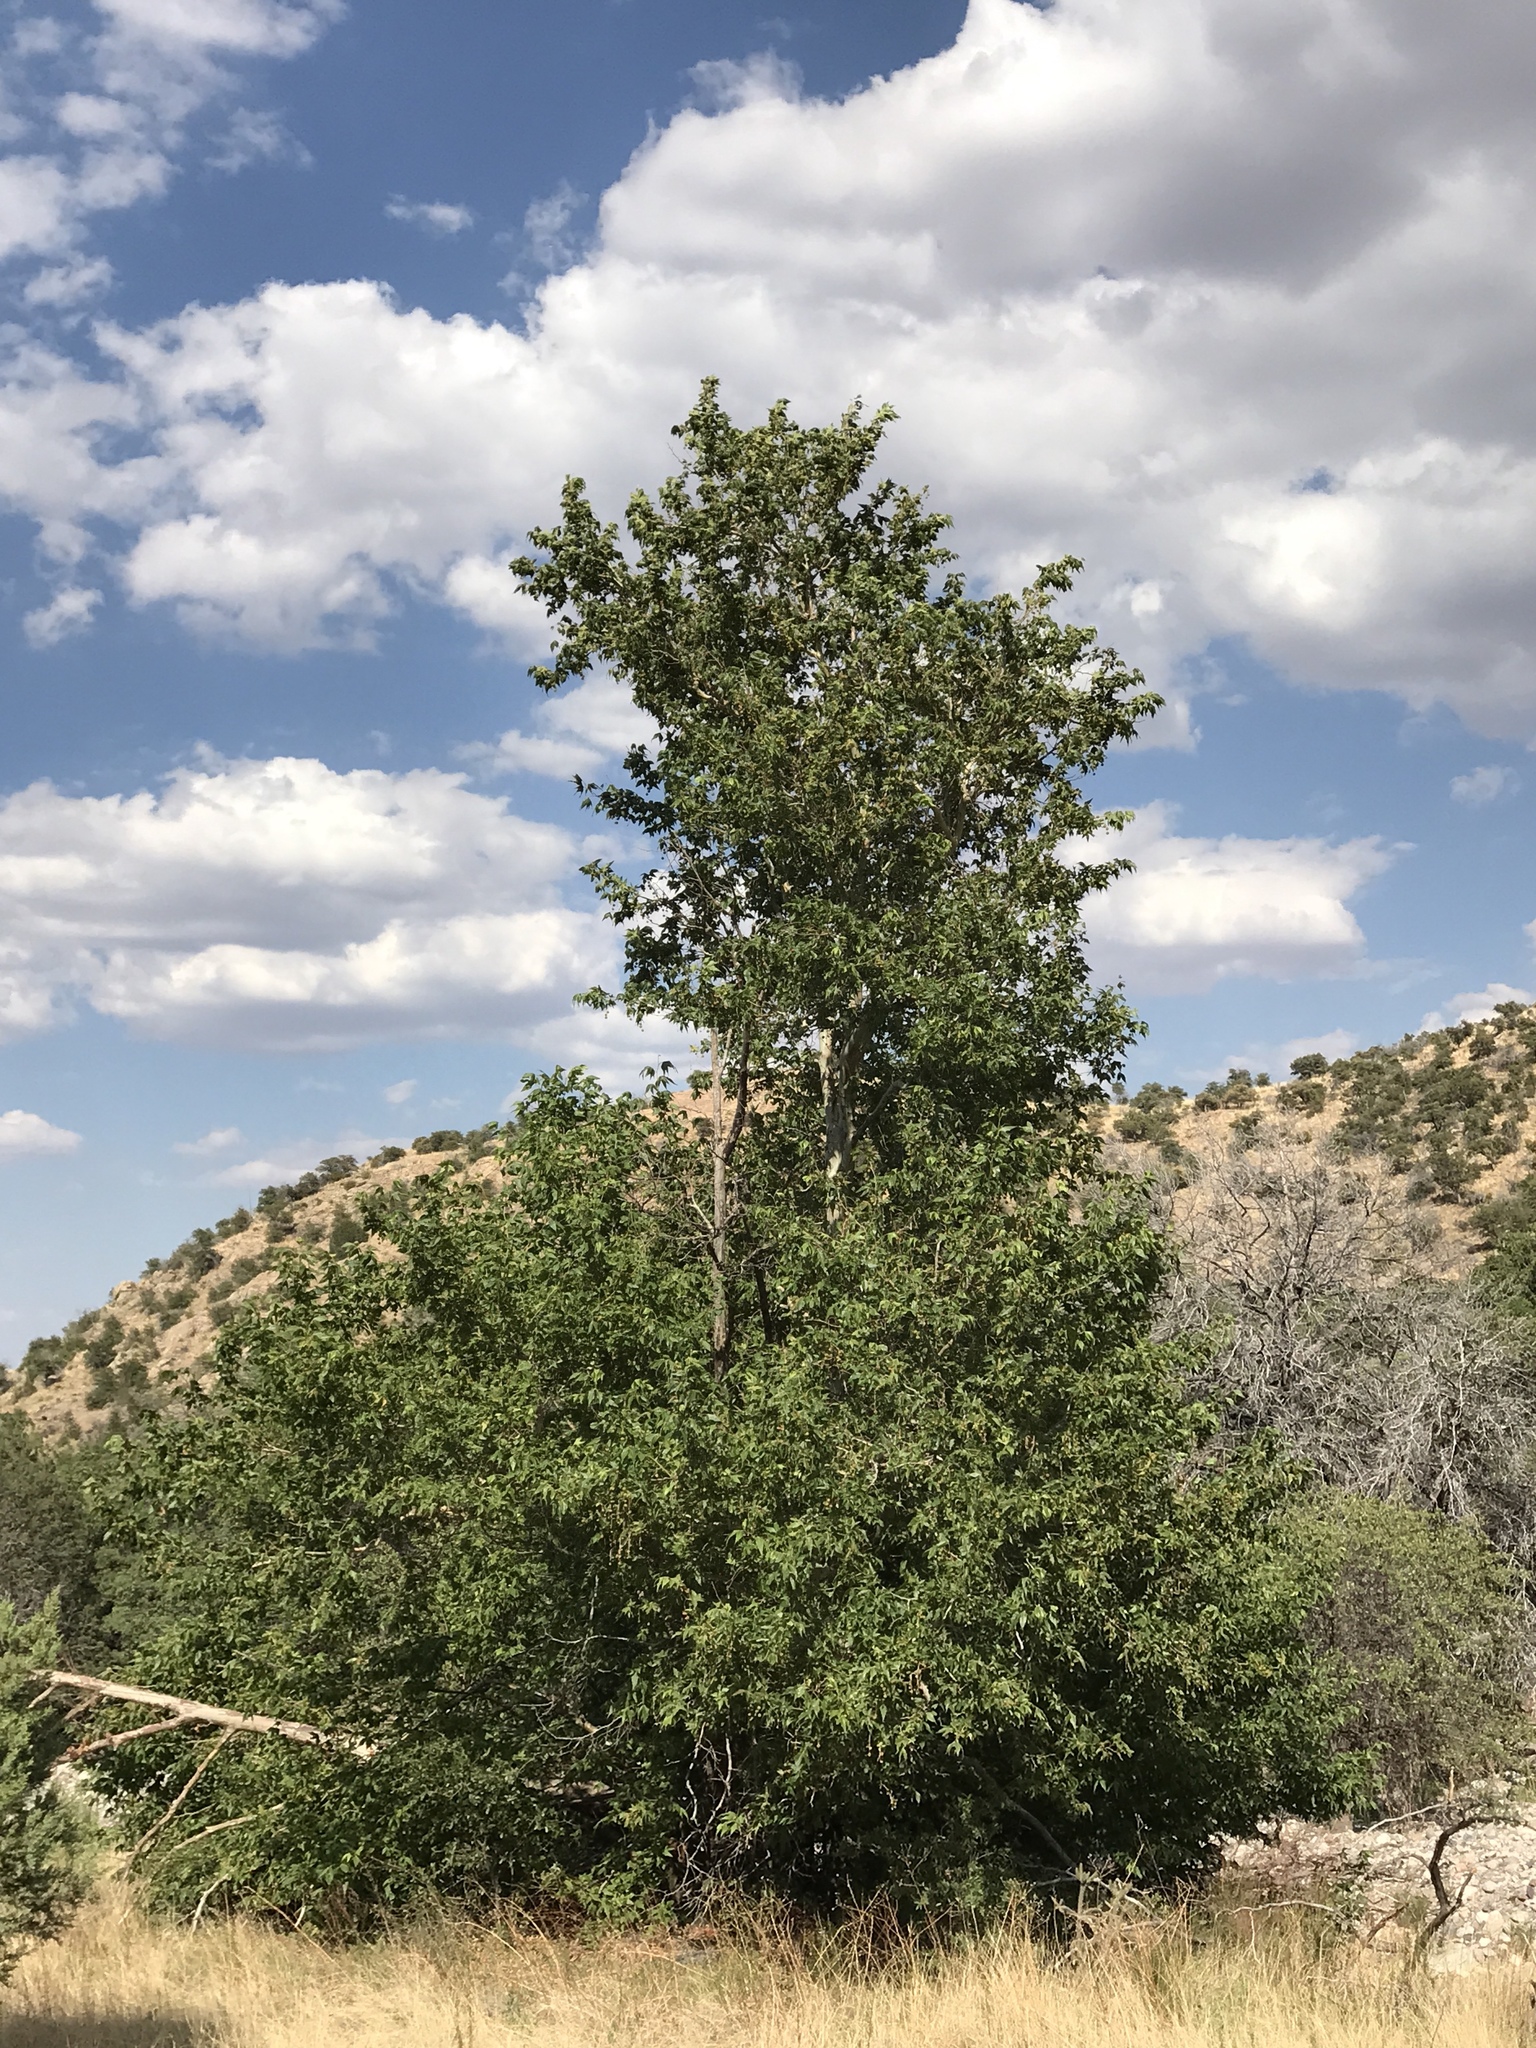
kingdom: Plantae
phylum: Tracheophyta
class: Magnoliopsida
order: Proteales
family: Platanaceae
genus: Platanus
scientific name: Platanus wrightii
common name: Arizona sycamore
